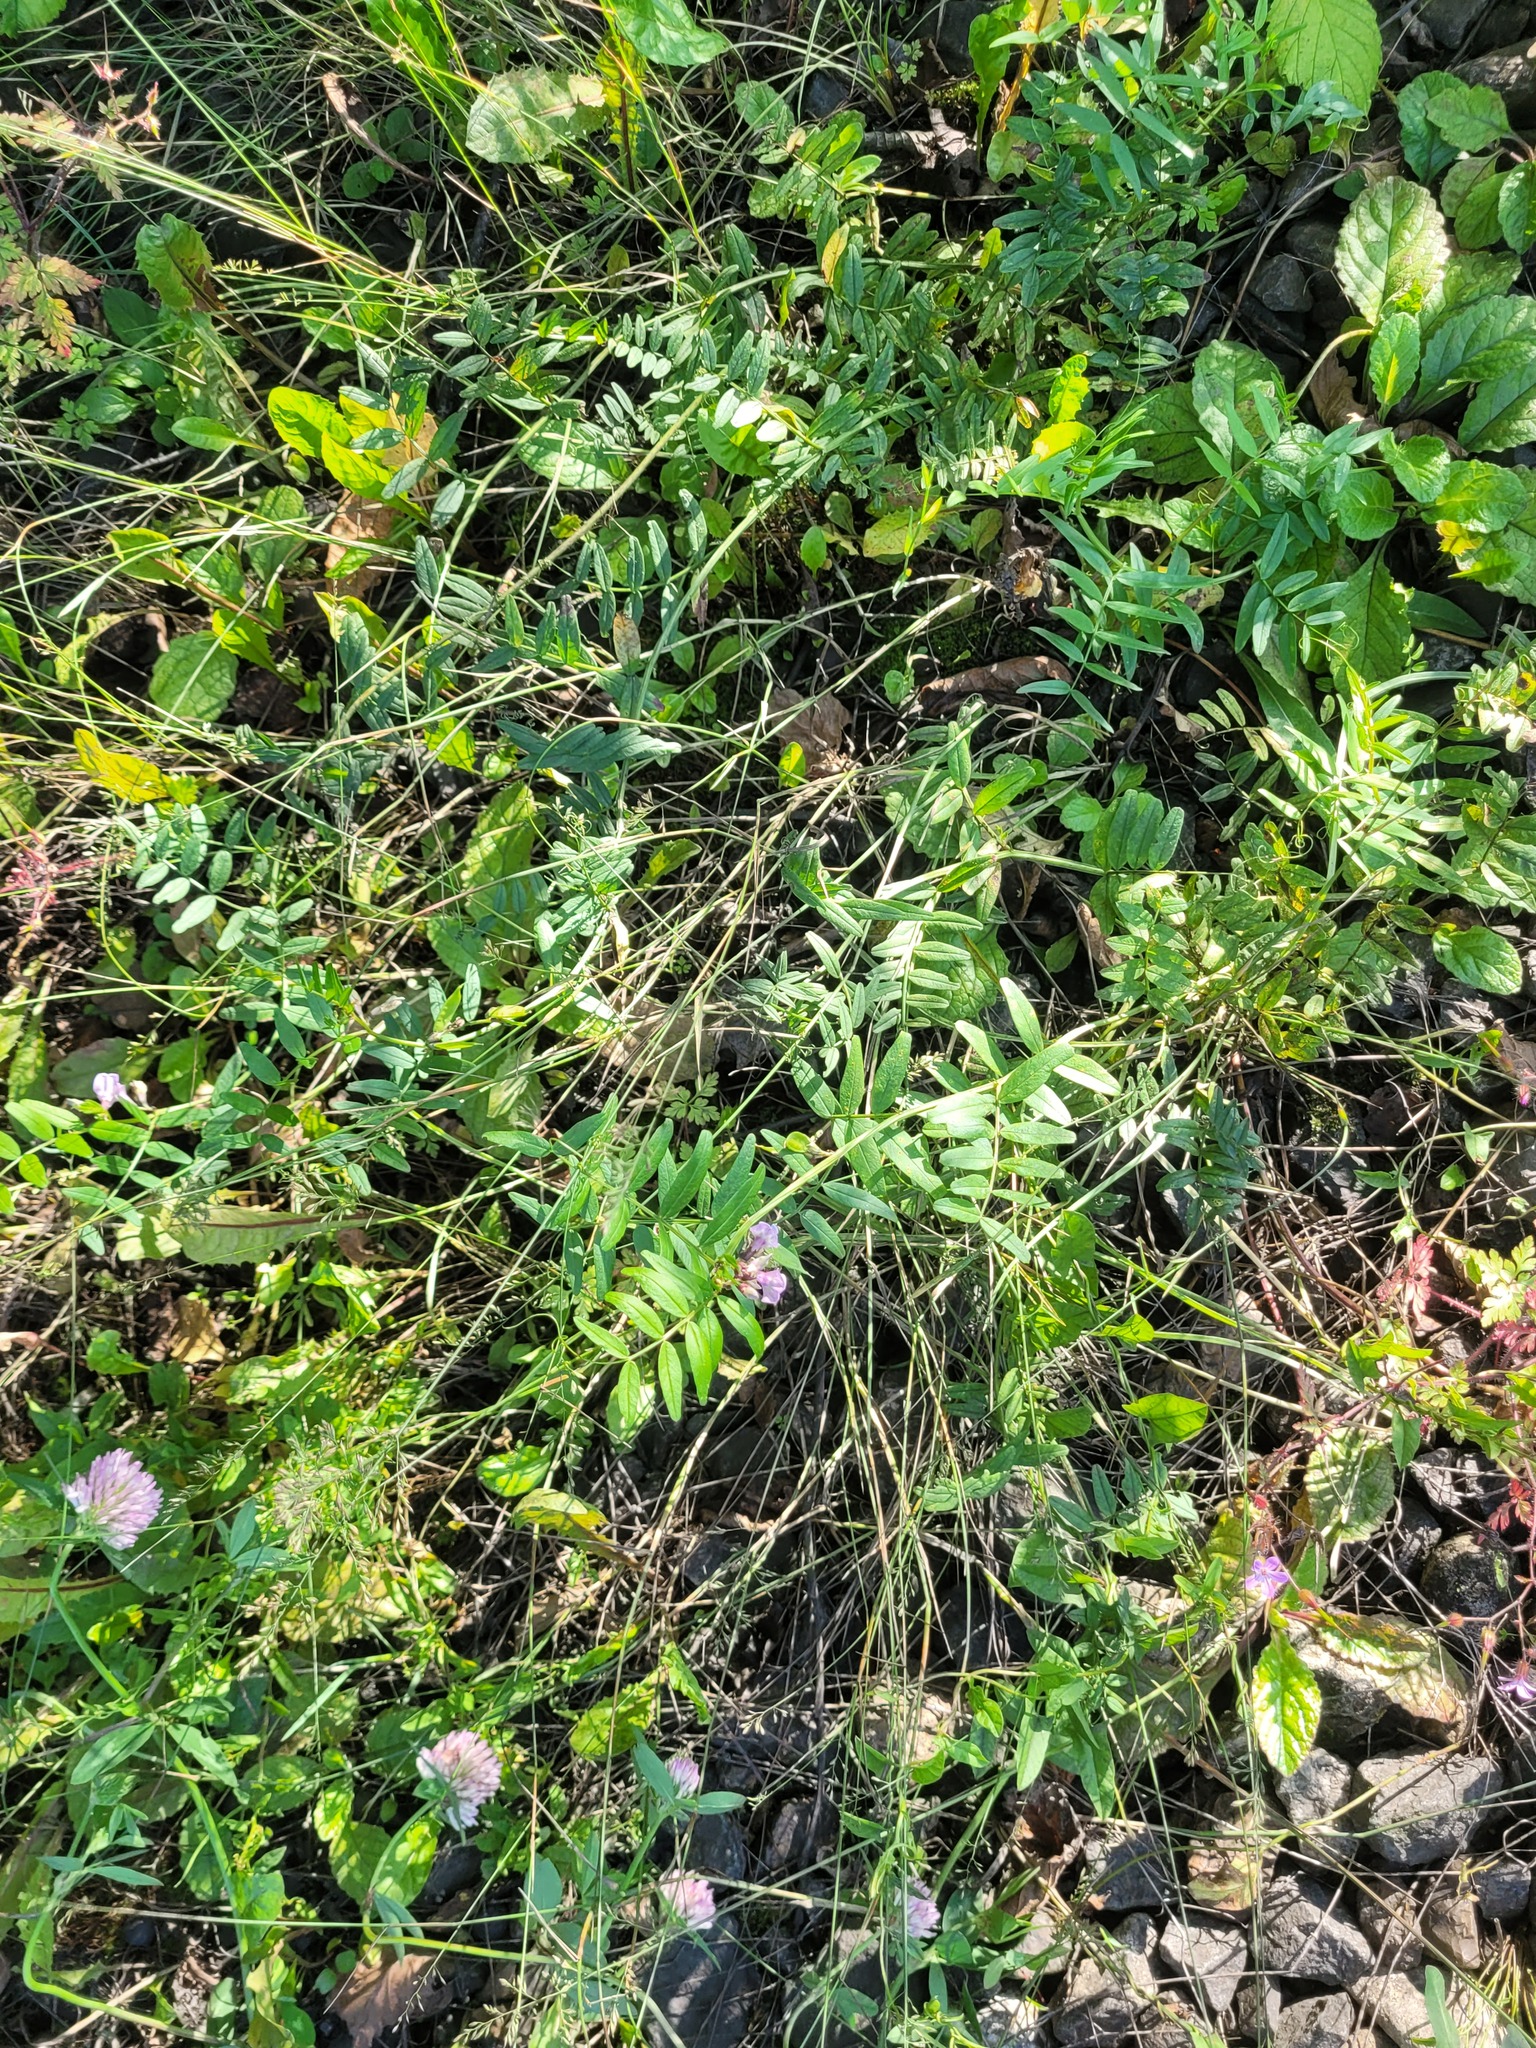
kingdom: Plantae
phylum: Tracheophyta
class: Magnoliopsida
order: Fabales
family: Fabaceae
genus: Vicia
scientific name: Vicia sepium
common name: Bush vetch
